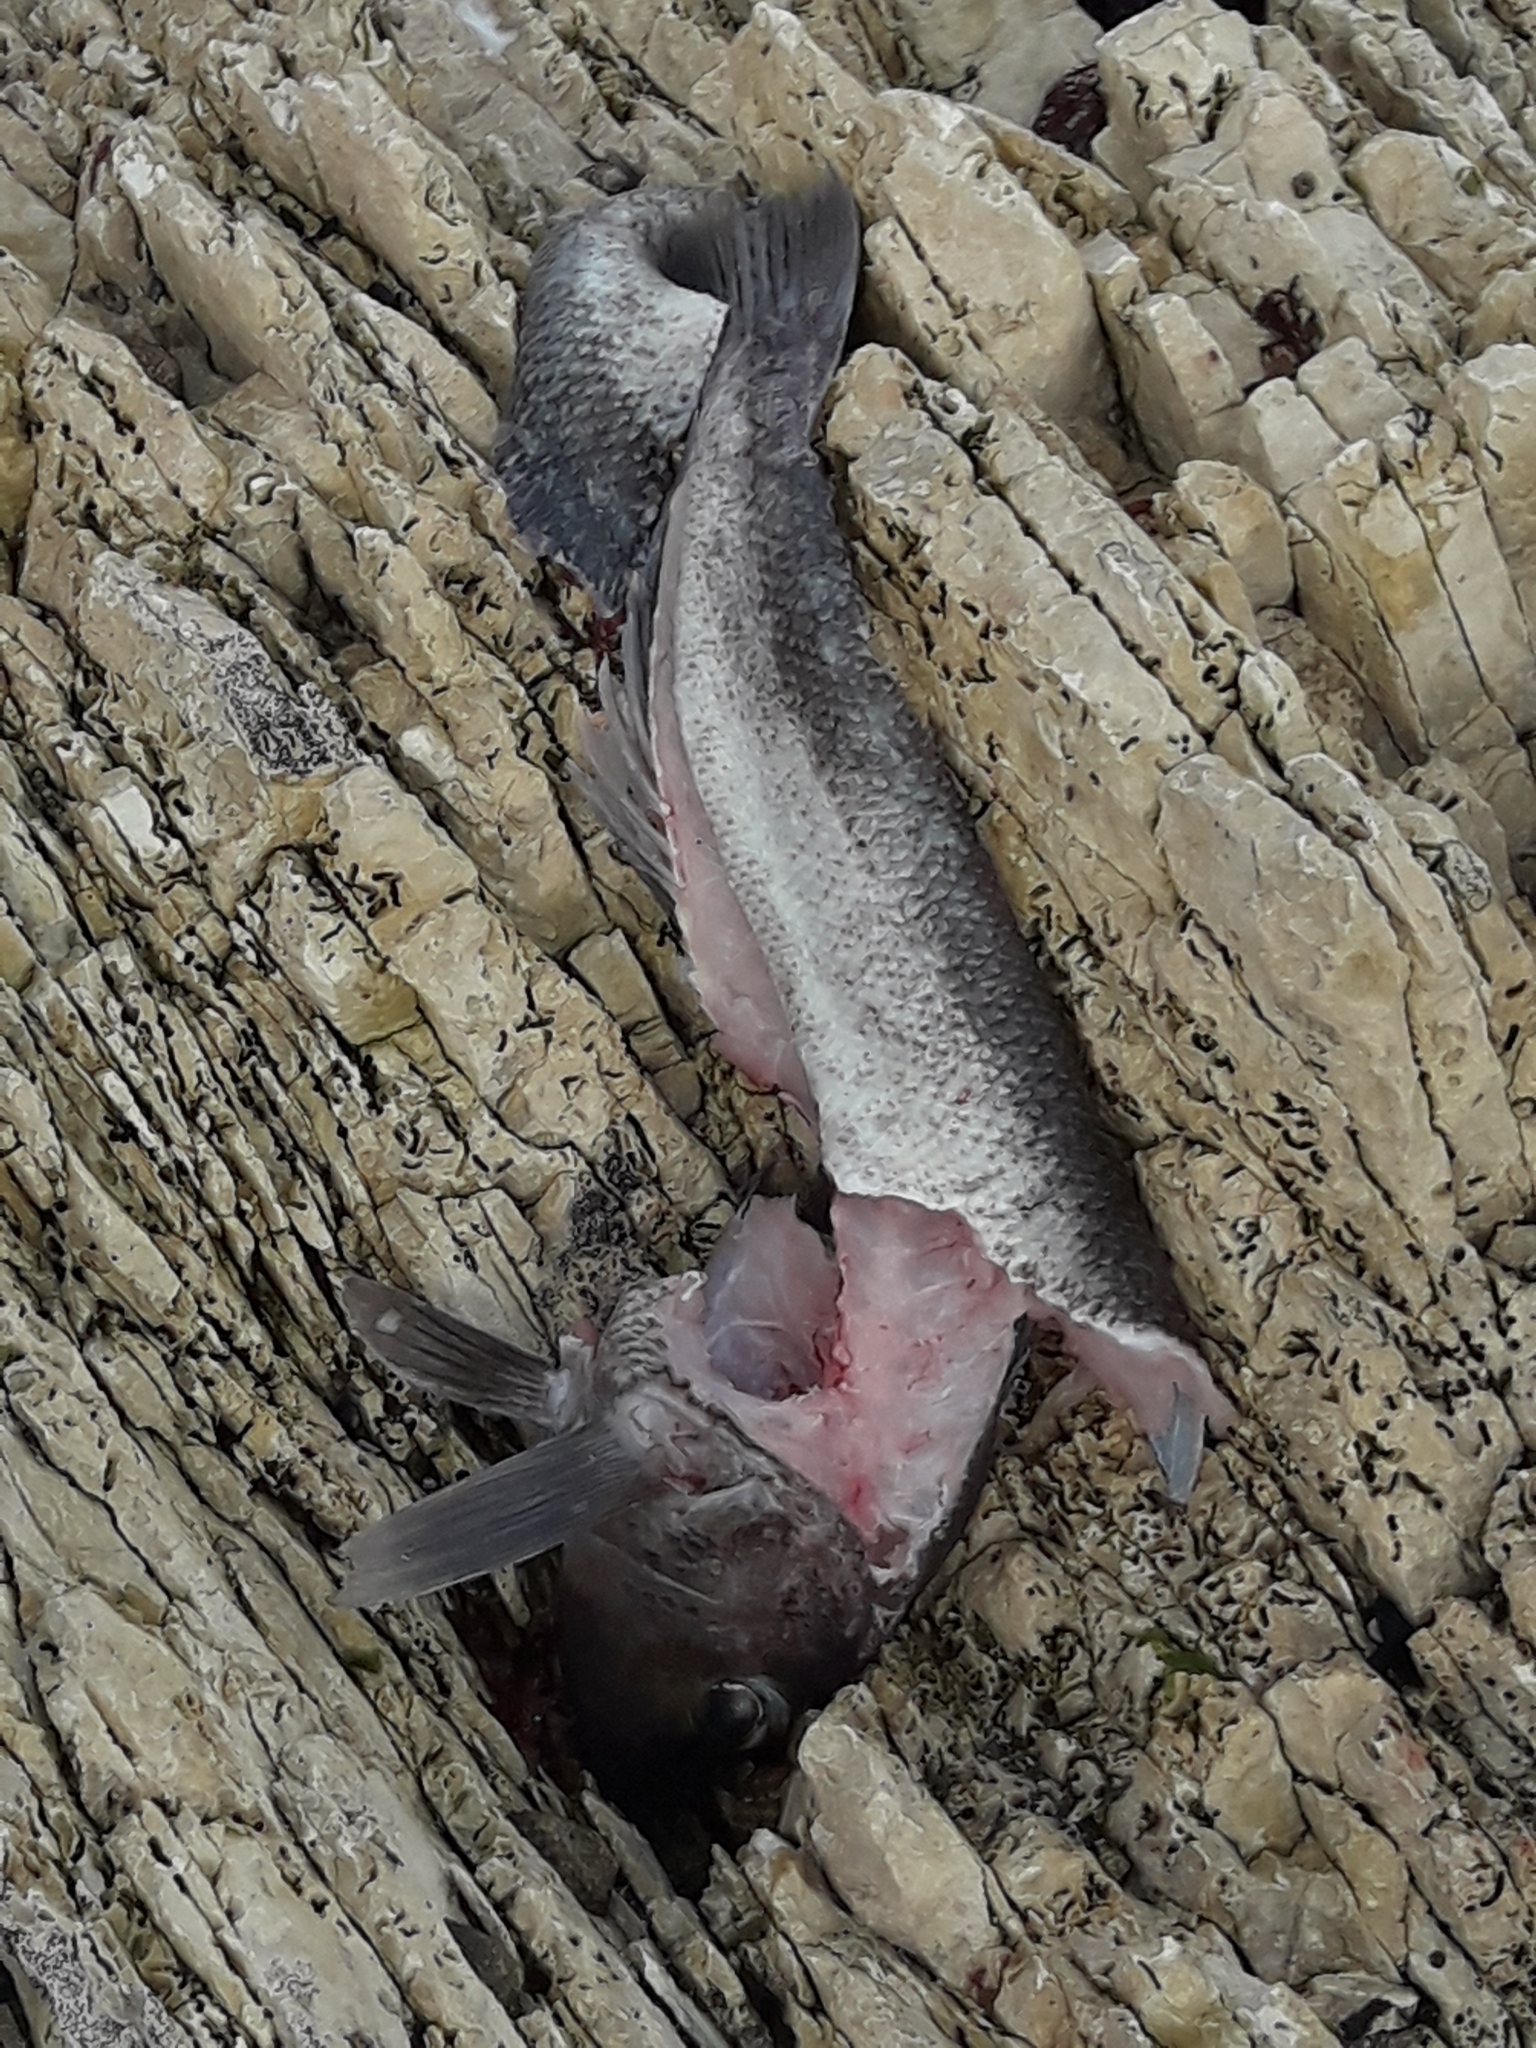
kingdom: Animalia
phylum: Chordata
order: Perciformes
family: Pinguipedidae
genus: Parapercis
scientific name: Parapercis colias
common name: Blue cod
